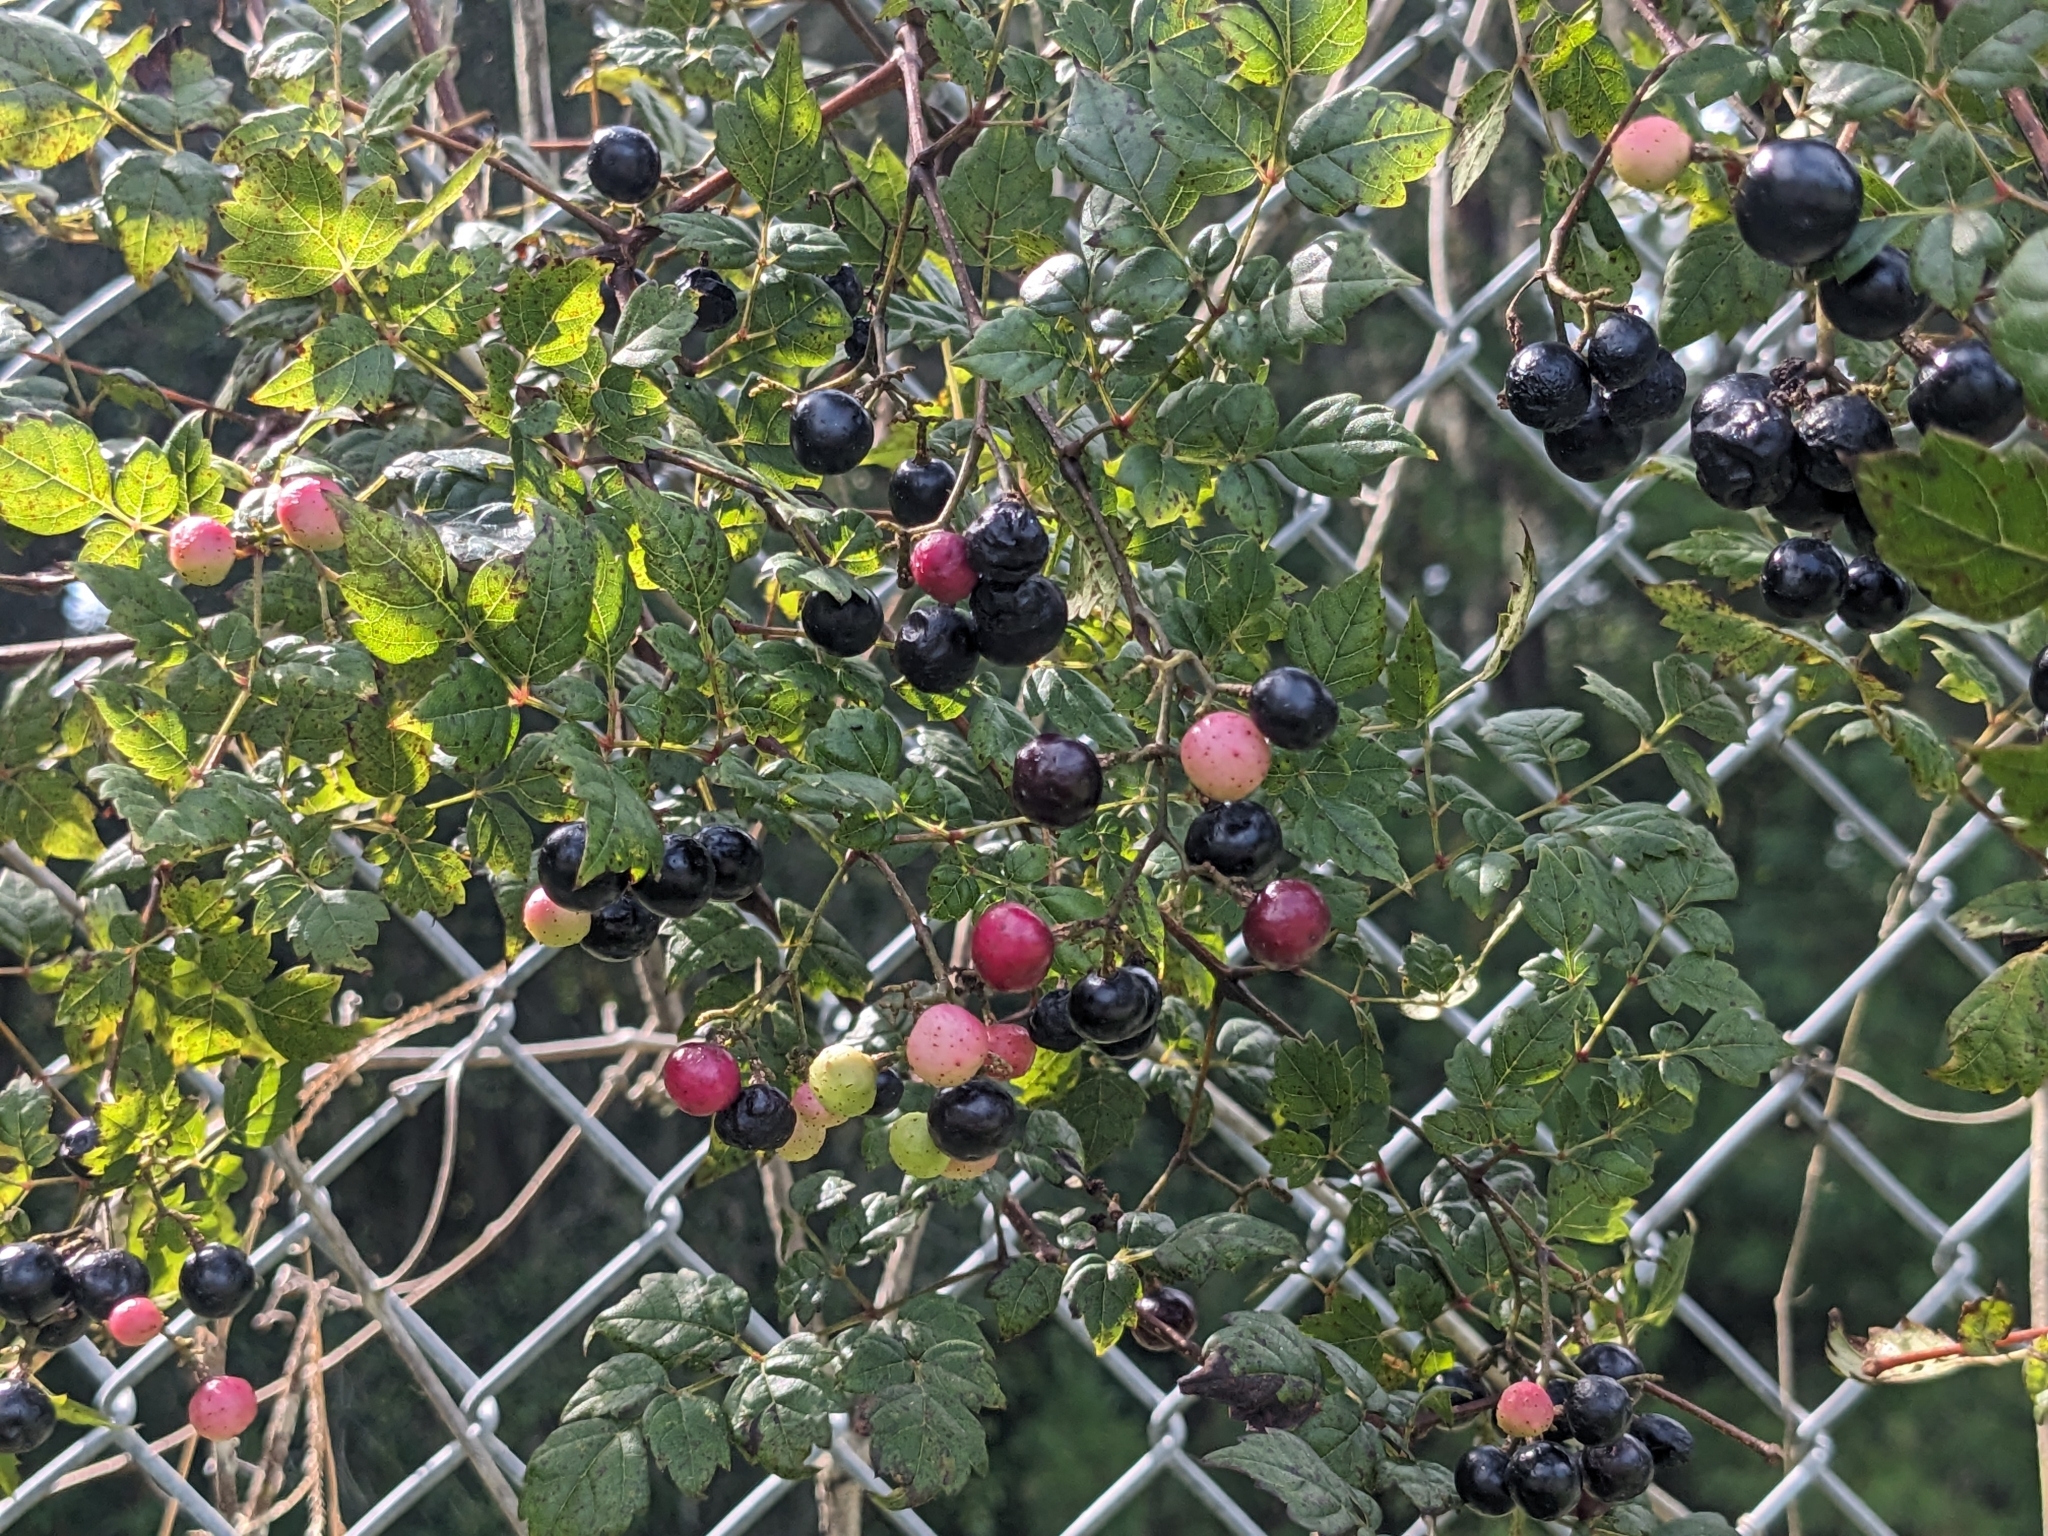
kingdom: Plantae
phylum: Tracheophyta
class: Magnoliopsida
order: Vitales
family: Vitaceae
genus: Nekemias
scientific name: Nekemias arborea
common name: Peppervine
